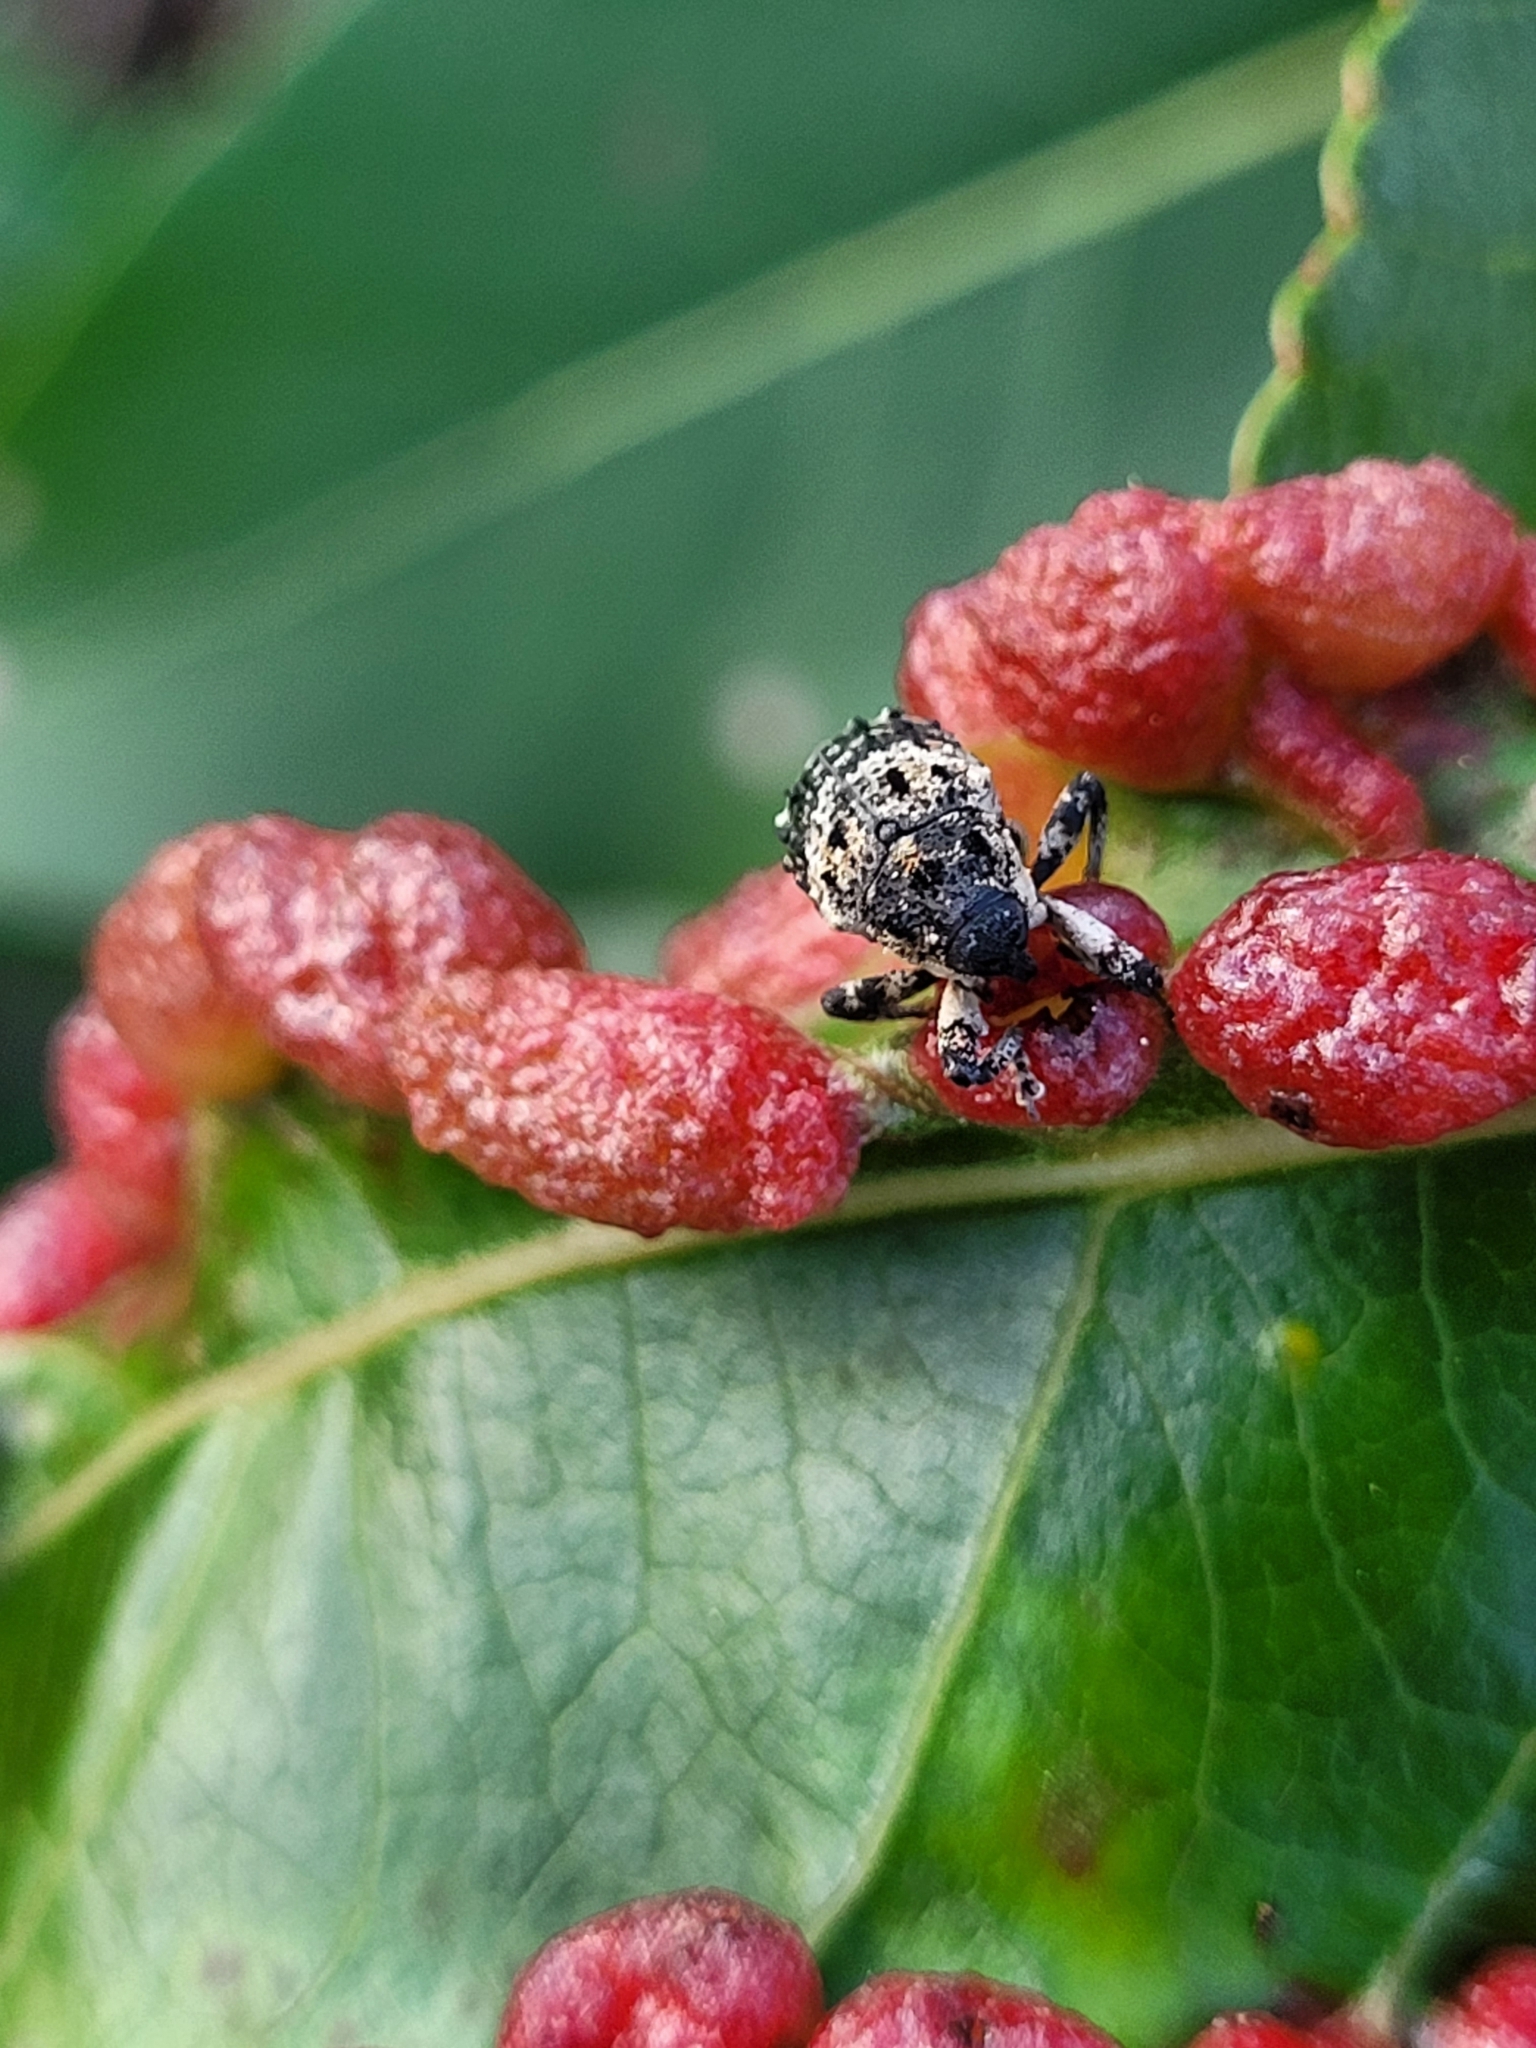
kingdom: Animalia
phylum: Arthropoda
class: Insecta
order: Coleoptera
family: Curculionidae
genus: Cryptorhynchus
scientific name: Cryptorhynchus lapathi
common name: Weevil
